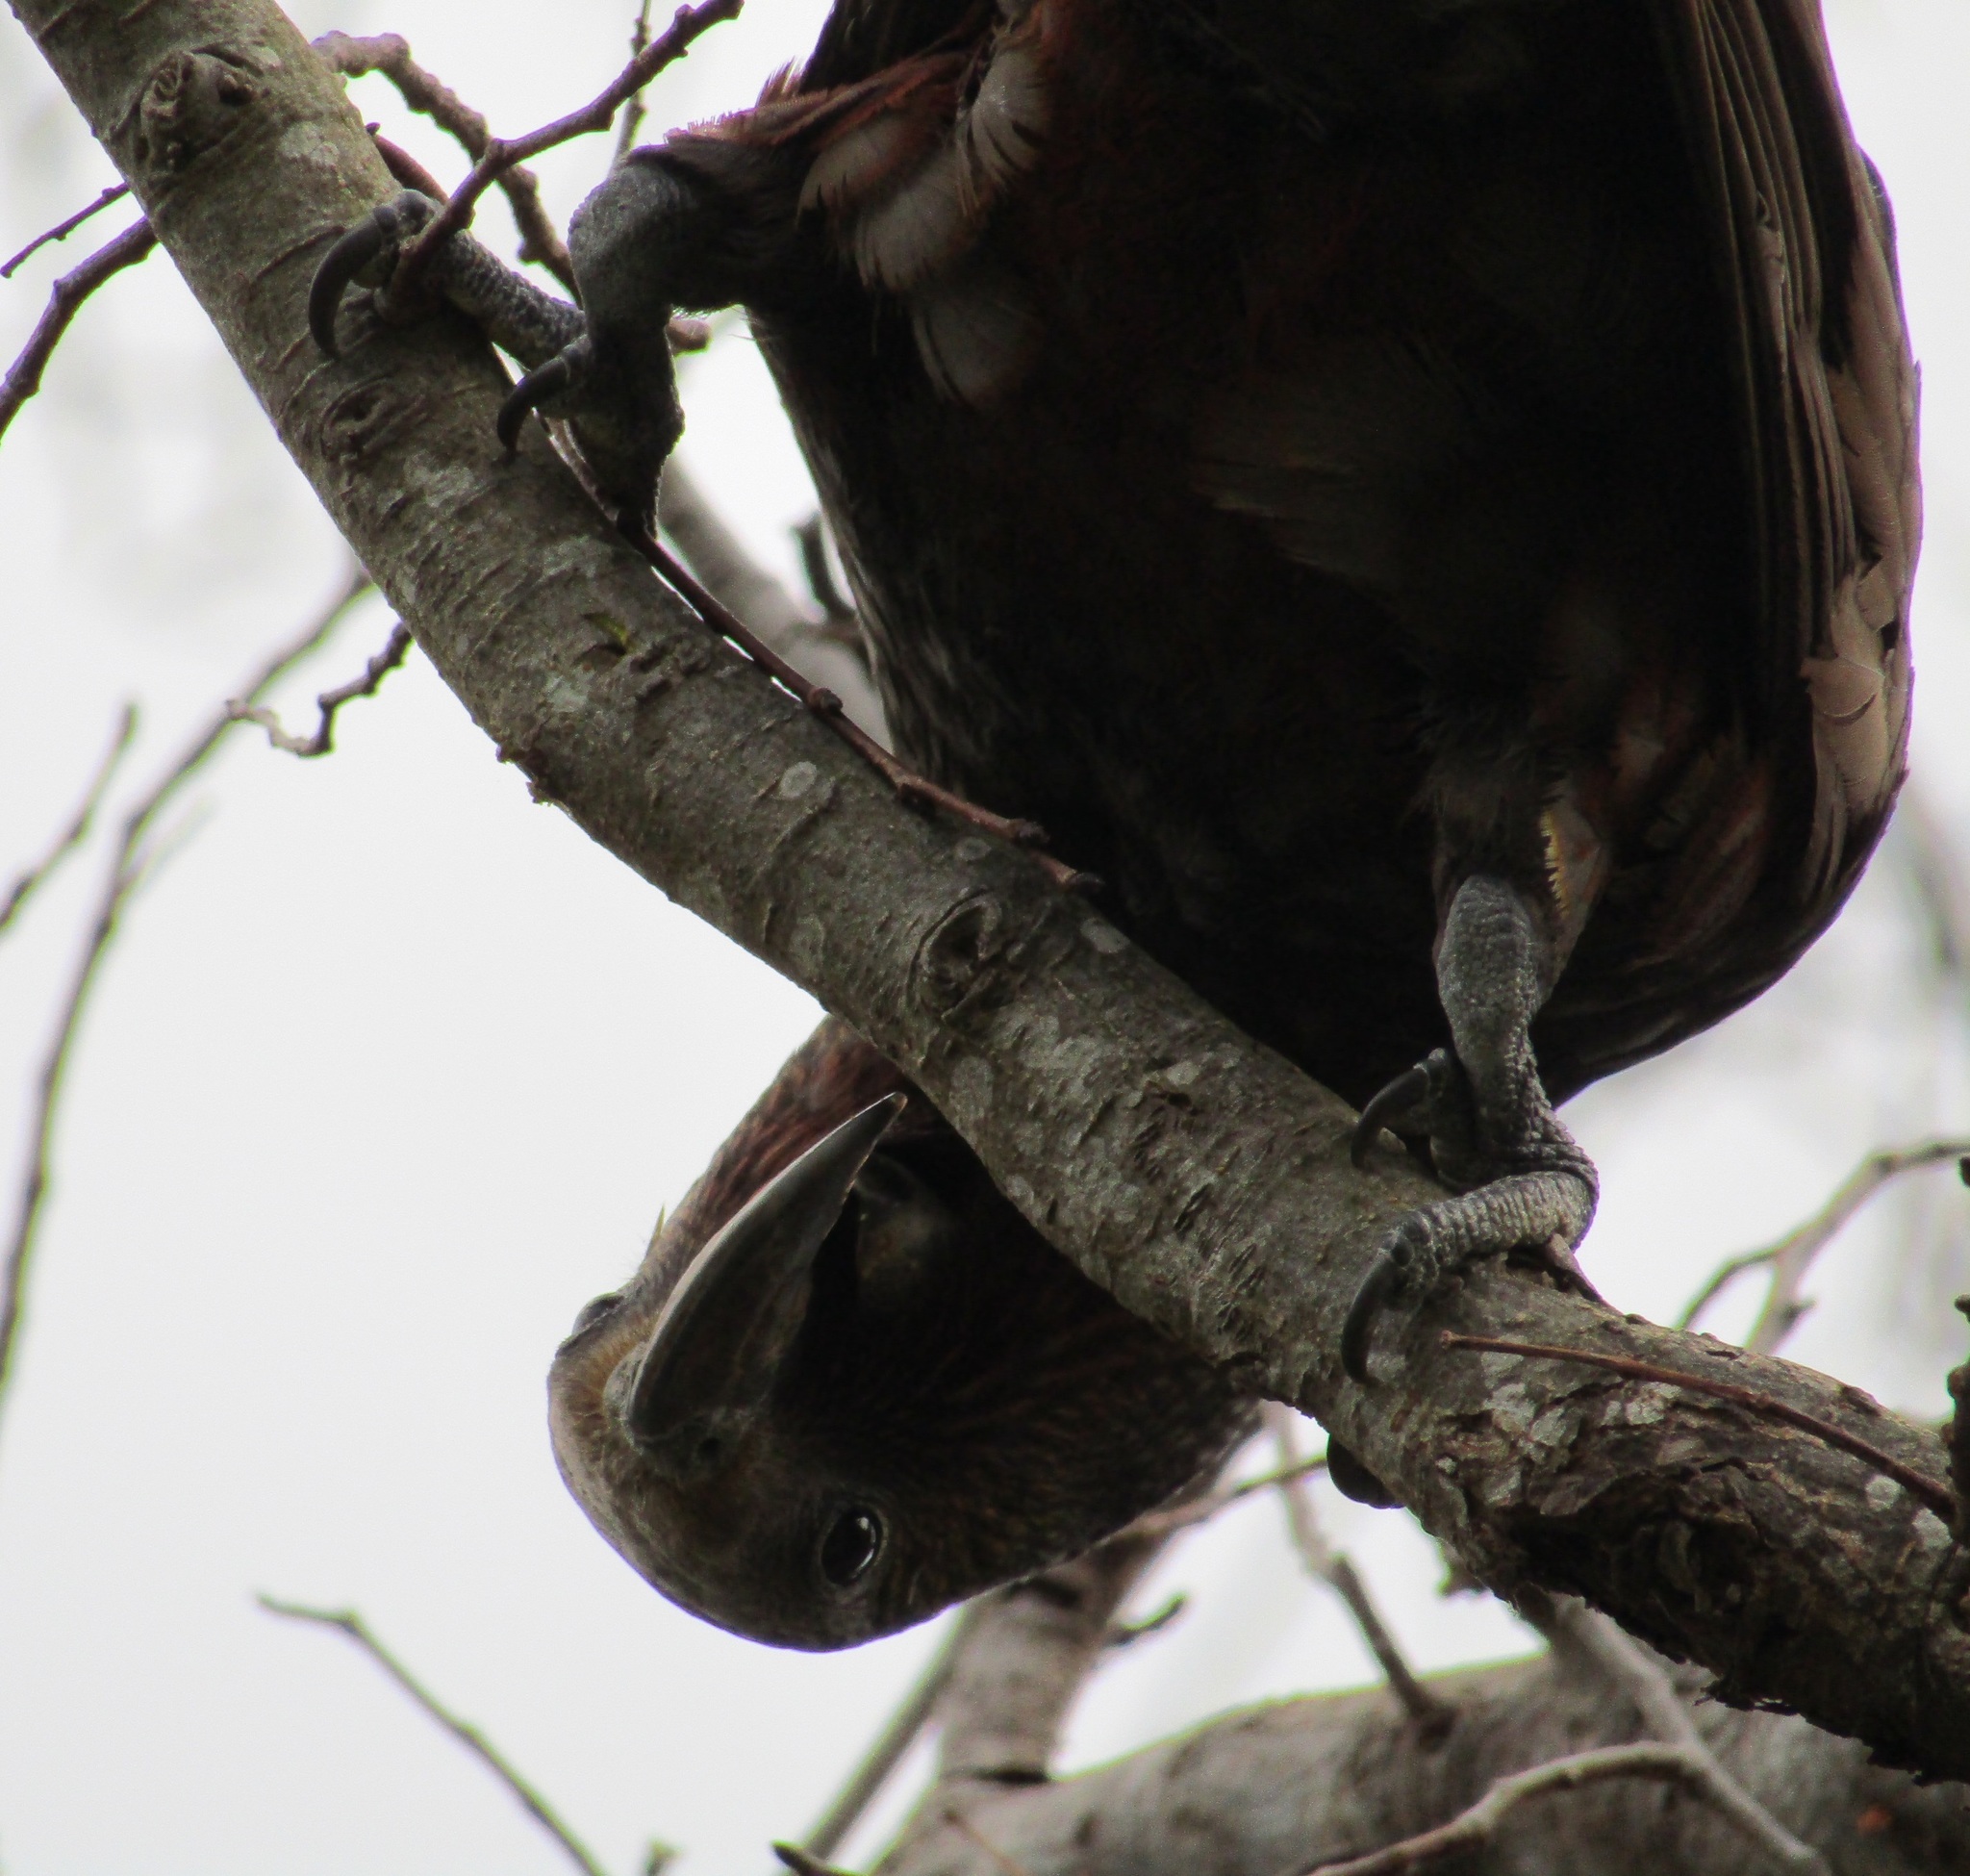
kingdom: Animalia
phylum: Chordata
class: Aves
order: Psittaciformes
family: Psittacidae
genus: Nestor
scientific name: Nestor meridionalis
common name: New zealand kaka
